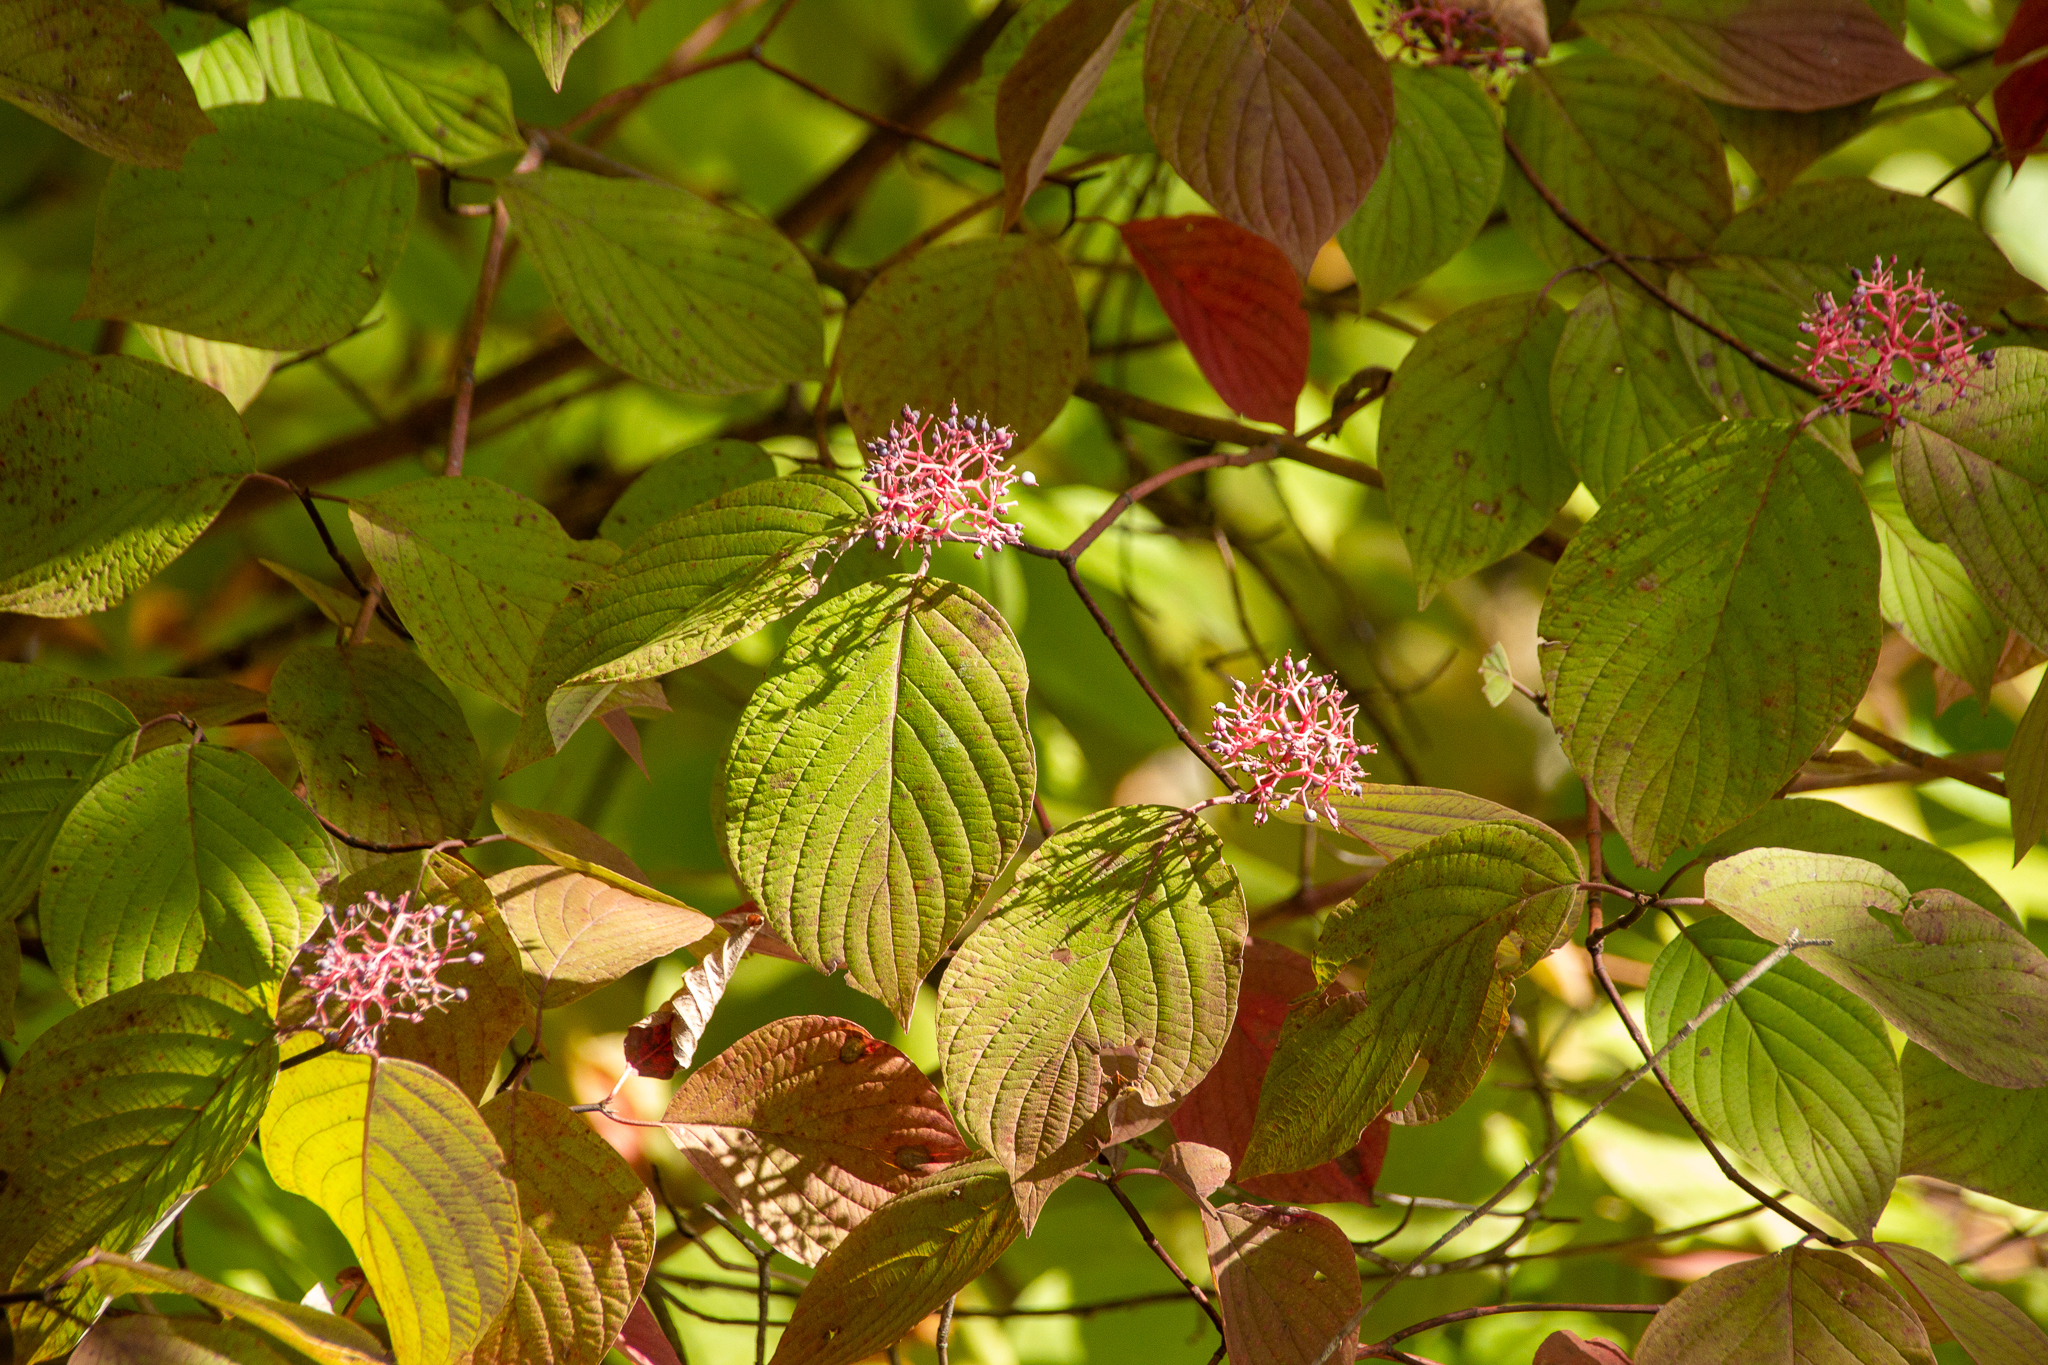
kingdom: Plantae
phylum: Tracheophyta
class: Magnoliopsida
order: Cornales
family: Cornaceae
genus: Cornus
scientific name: Cornus rugosa
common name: Round-leaf dogwood
